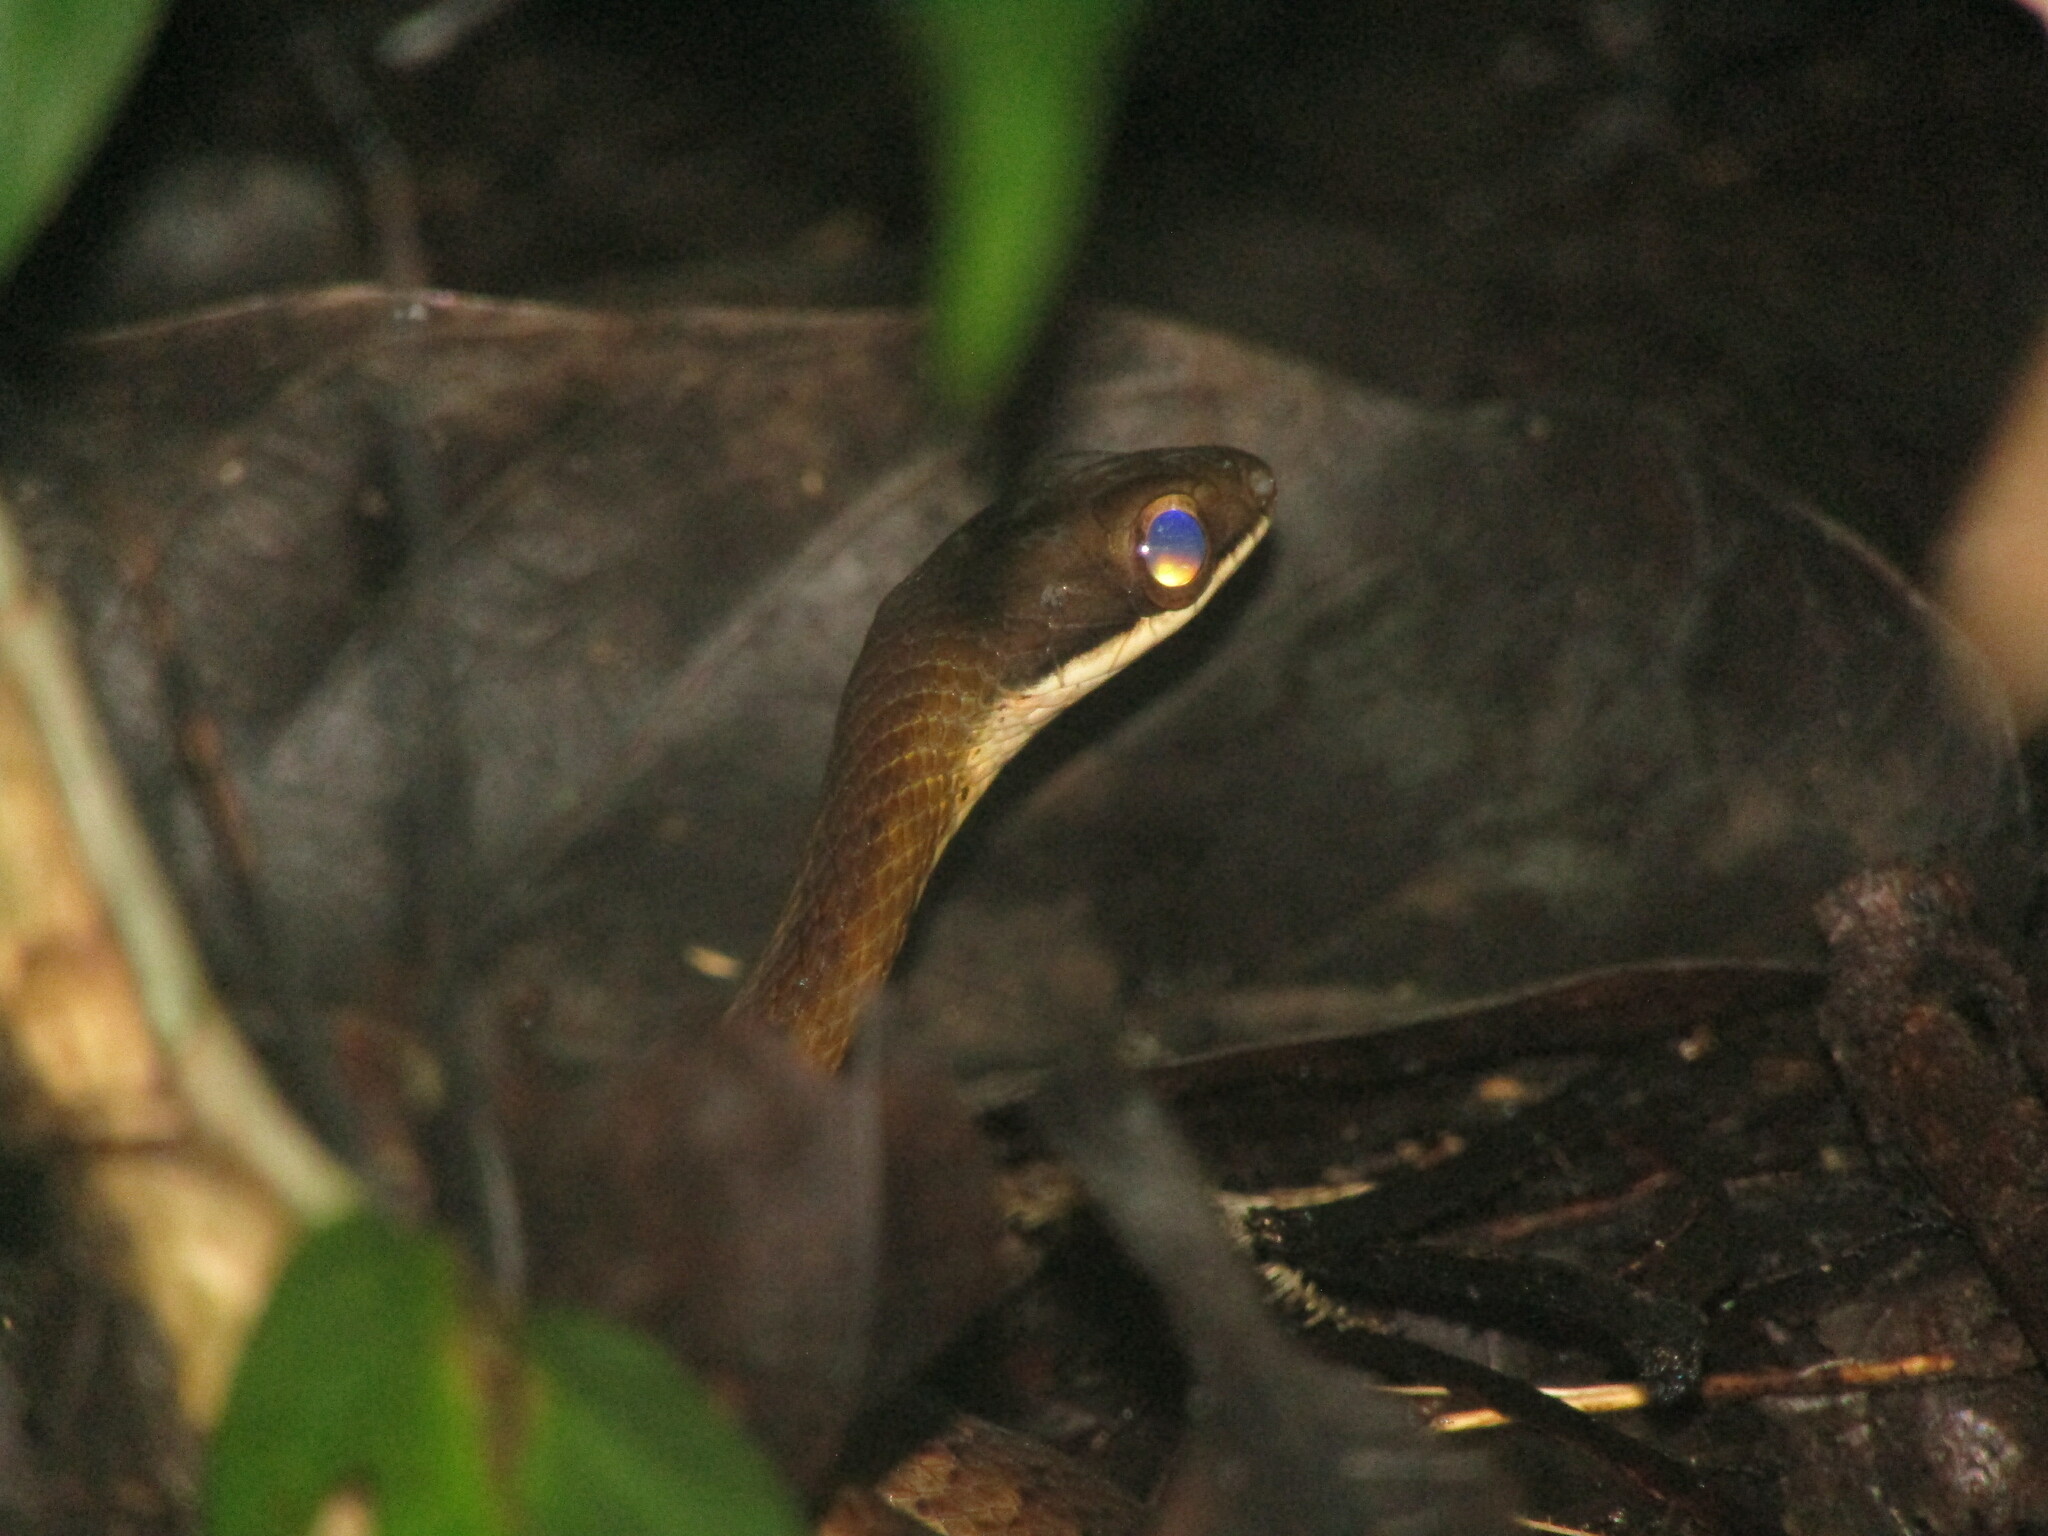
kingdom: Animalia
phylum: Chordata
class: Squamata
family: Colubridae
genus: Dendrophidion
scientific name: Dendrophidion percarinatum
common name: South american forest racer
